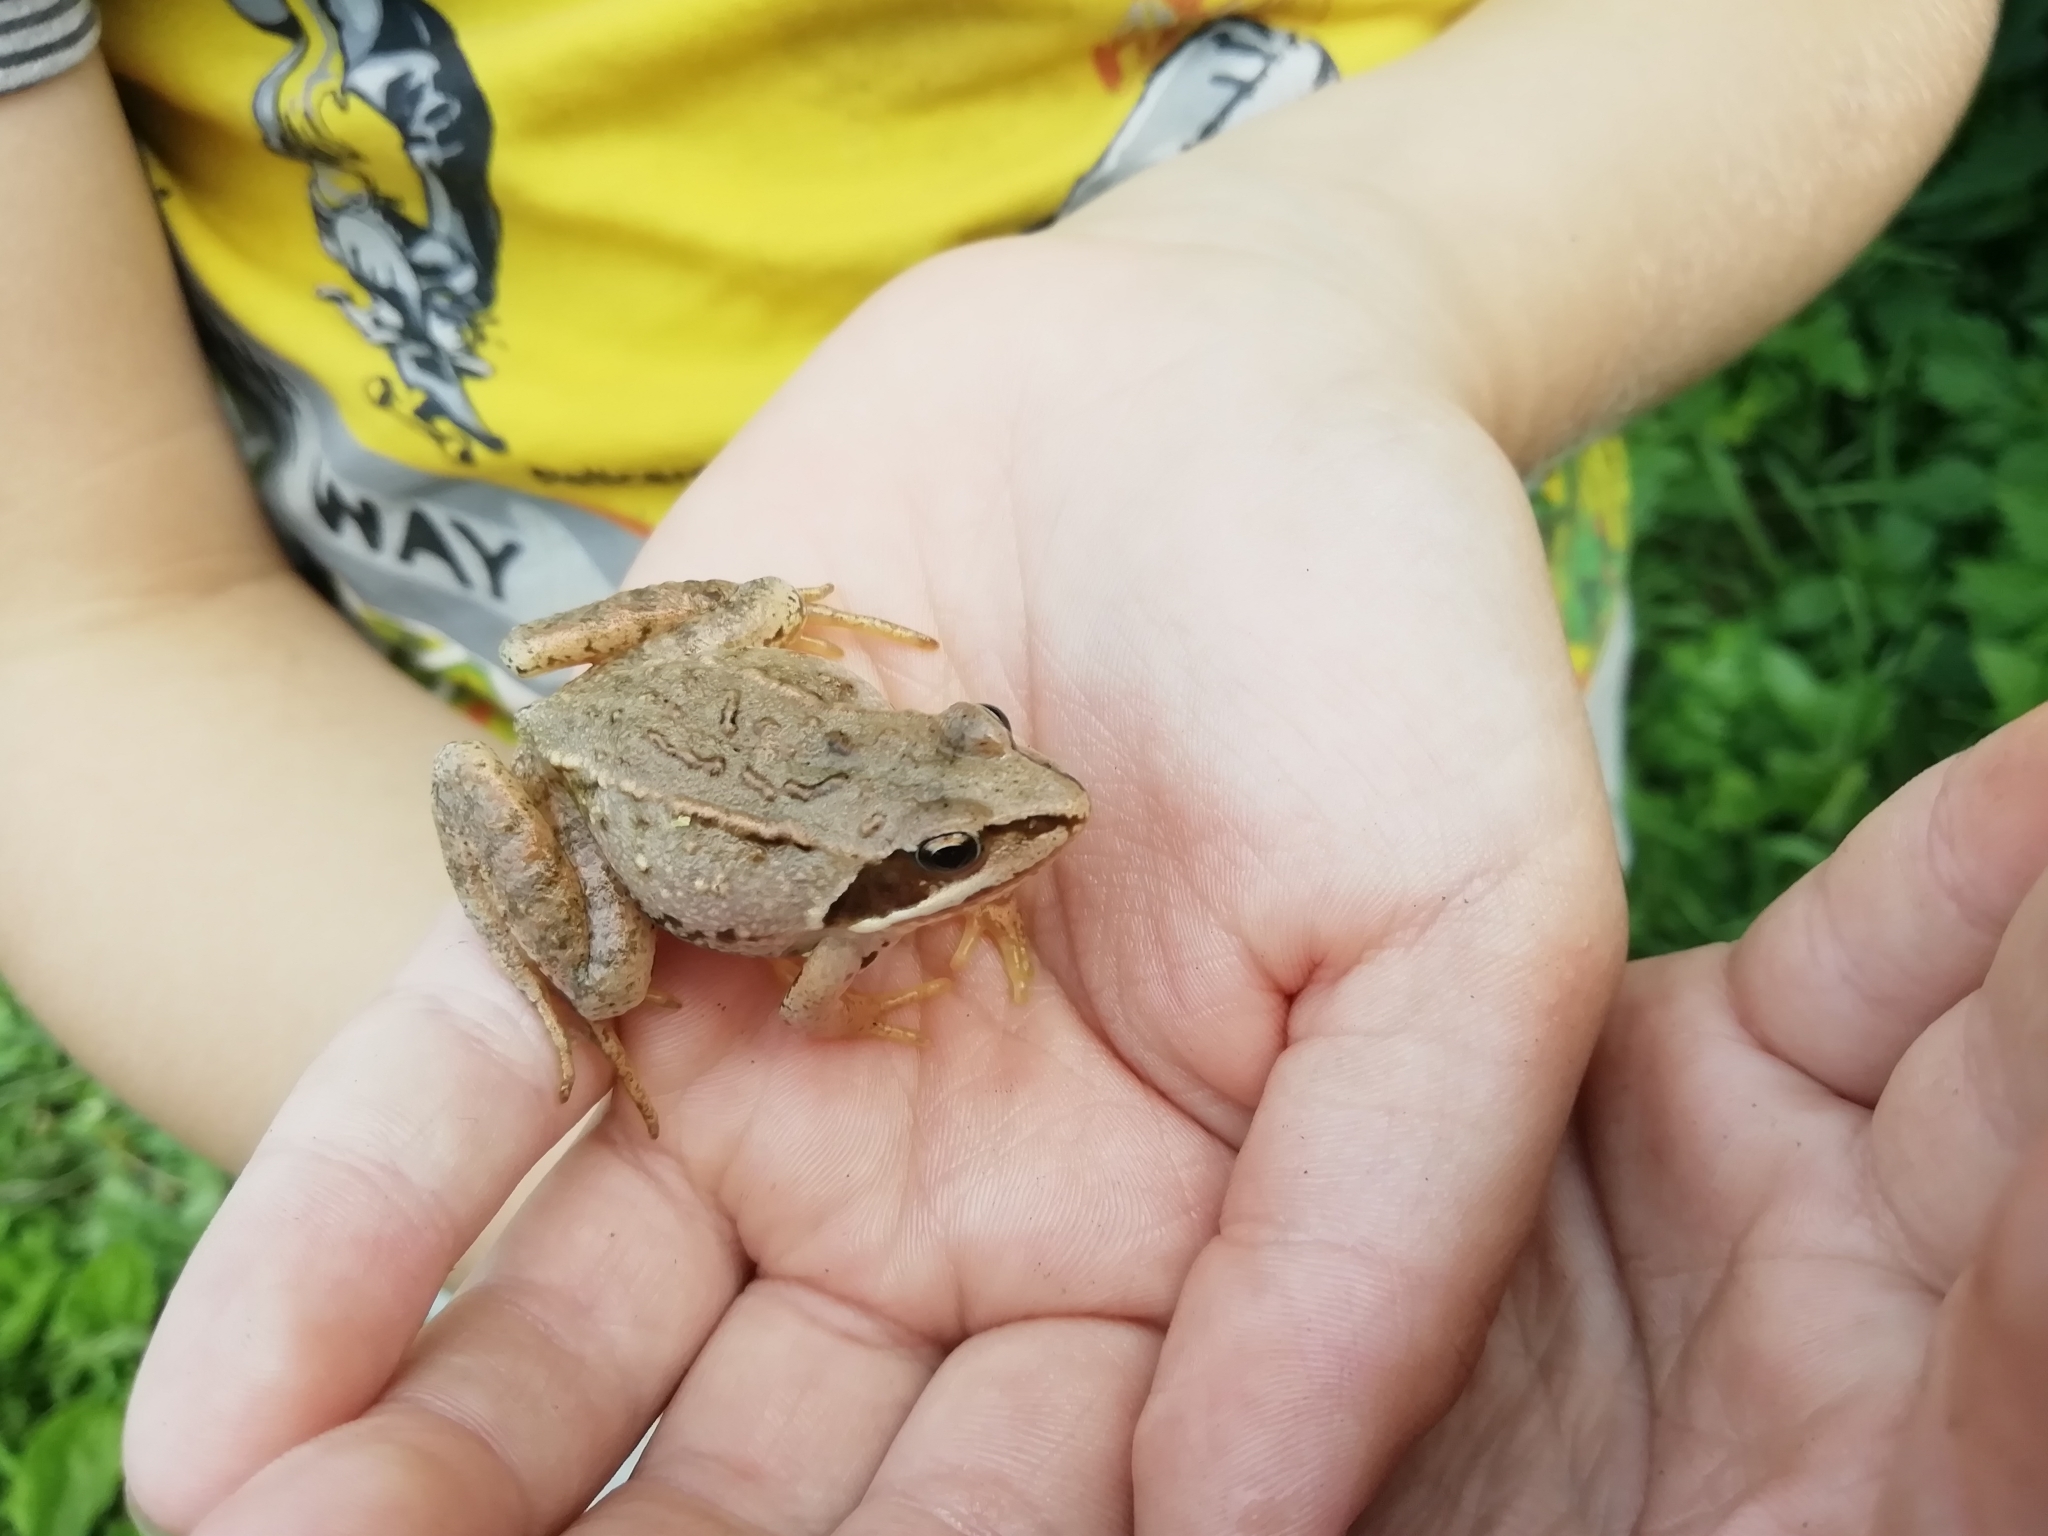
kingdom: Animalia
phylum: Chordata
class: Amphibia
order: Anura
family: Ranidae
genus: Rana
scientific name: Rana arvalis
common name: Moor frog
